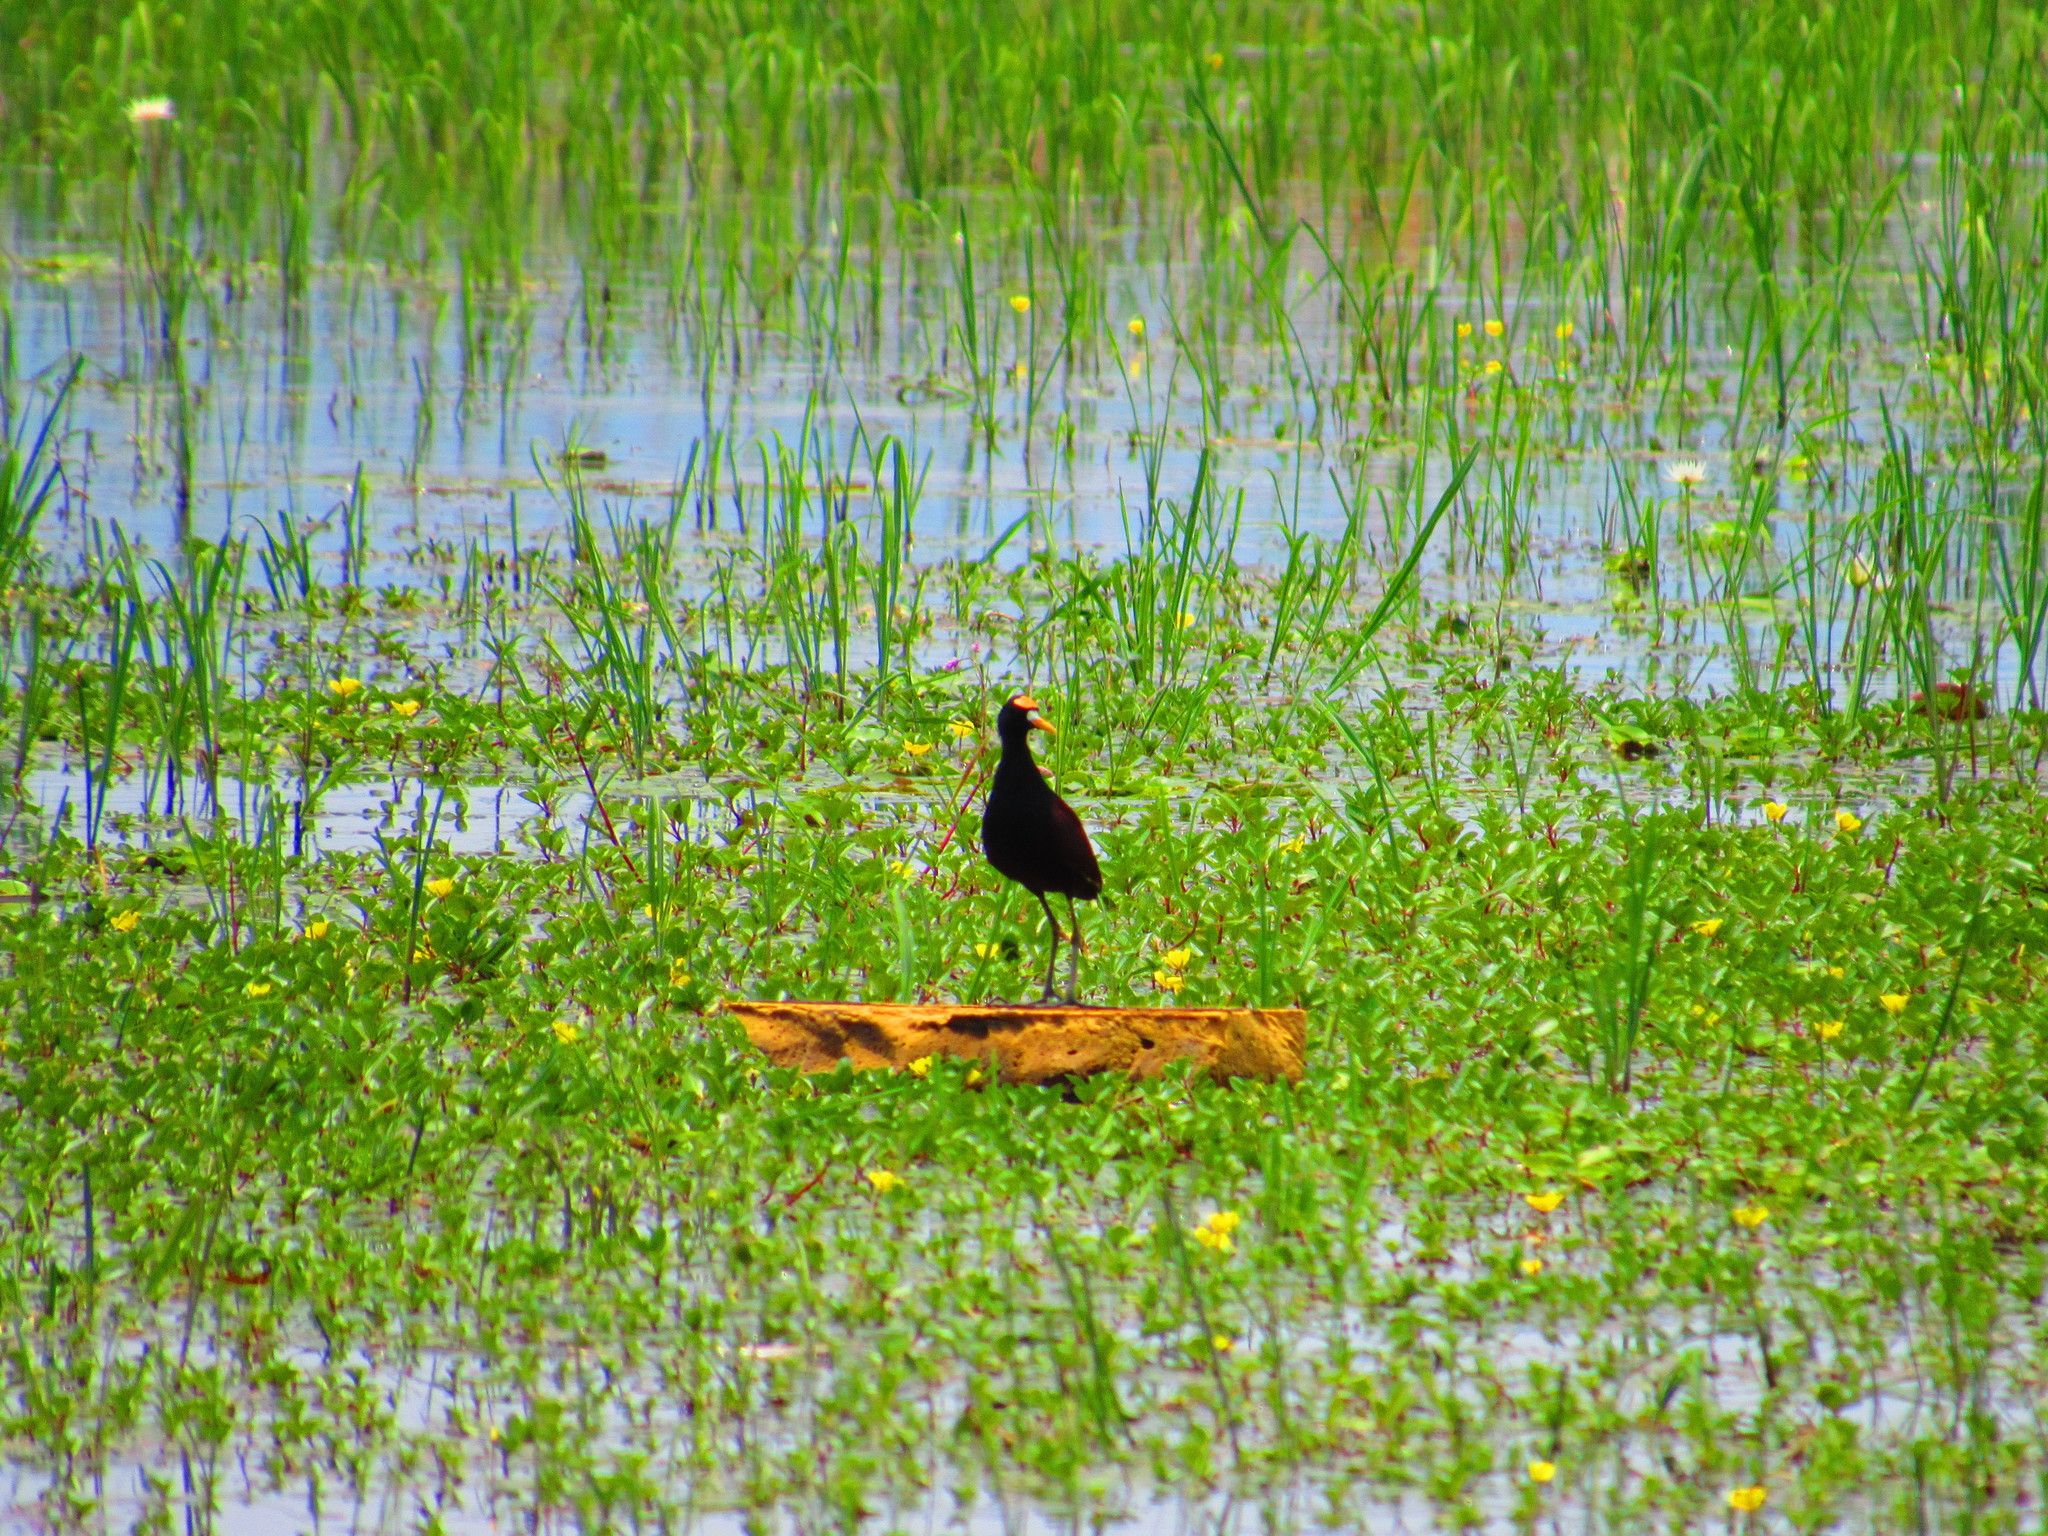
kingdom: Animalia
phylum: Chordata
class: Aves
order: Charadriiformes
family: Jacanidae
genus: Jacana
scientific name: Jacana spinosa
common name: Northern jacana
